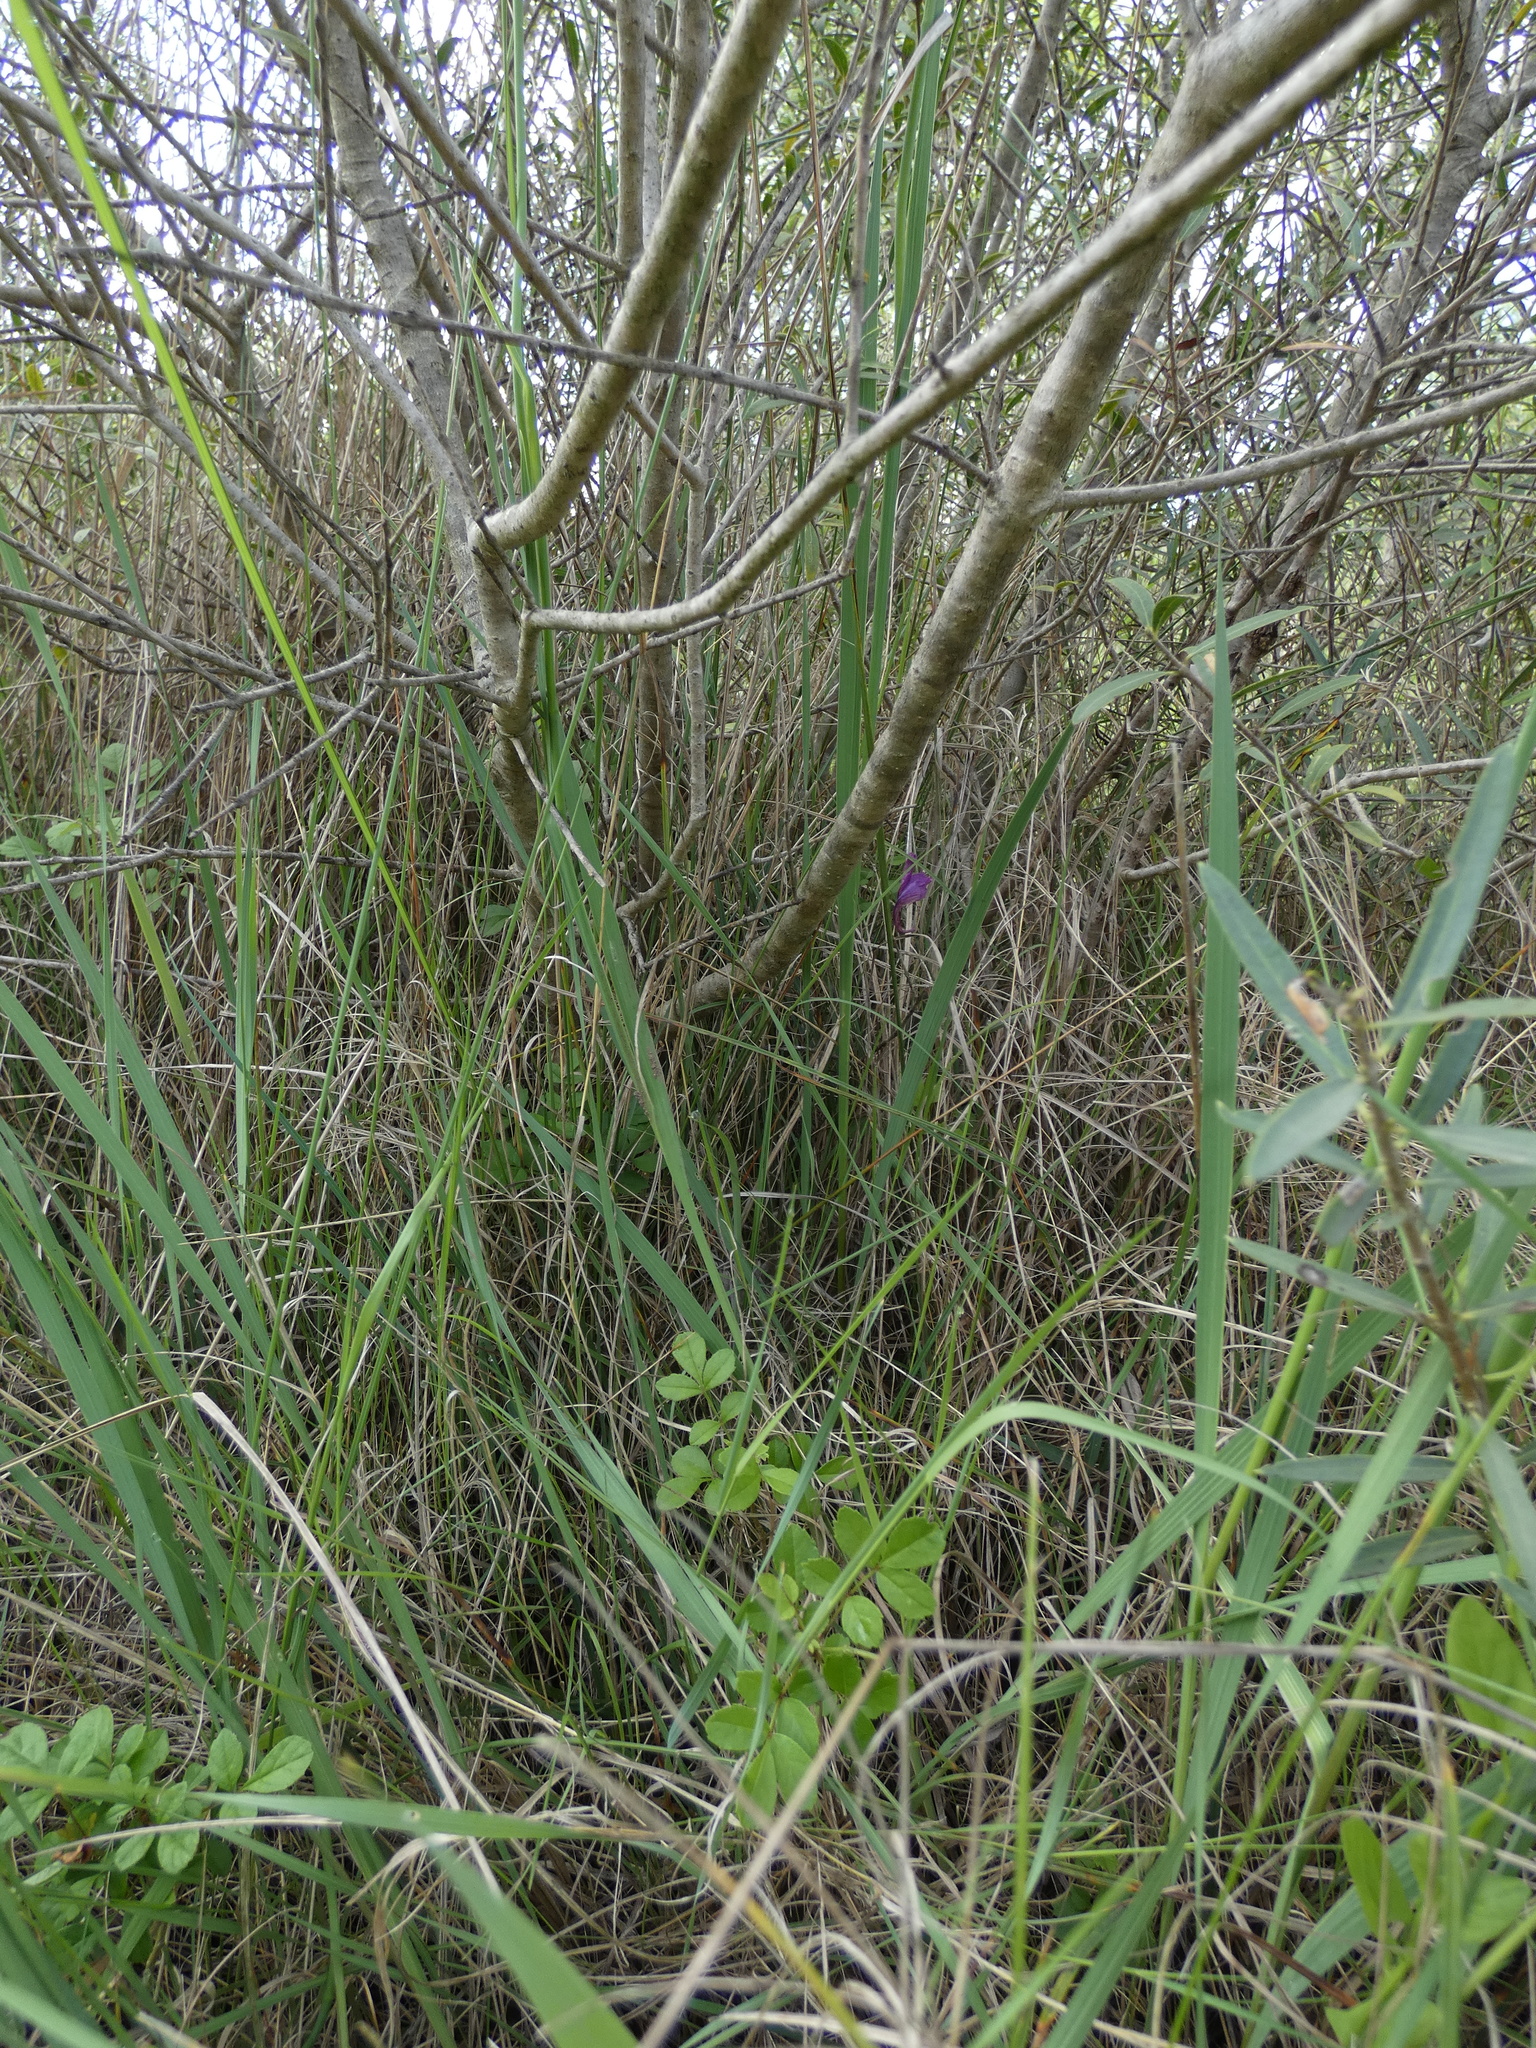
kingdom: Plantae
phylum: Tracheophyta
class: Liliopsida
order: Asparagales
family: Iridaceae
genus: Gladiolus
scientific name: Gladiolus dubius
